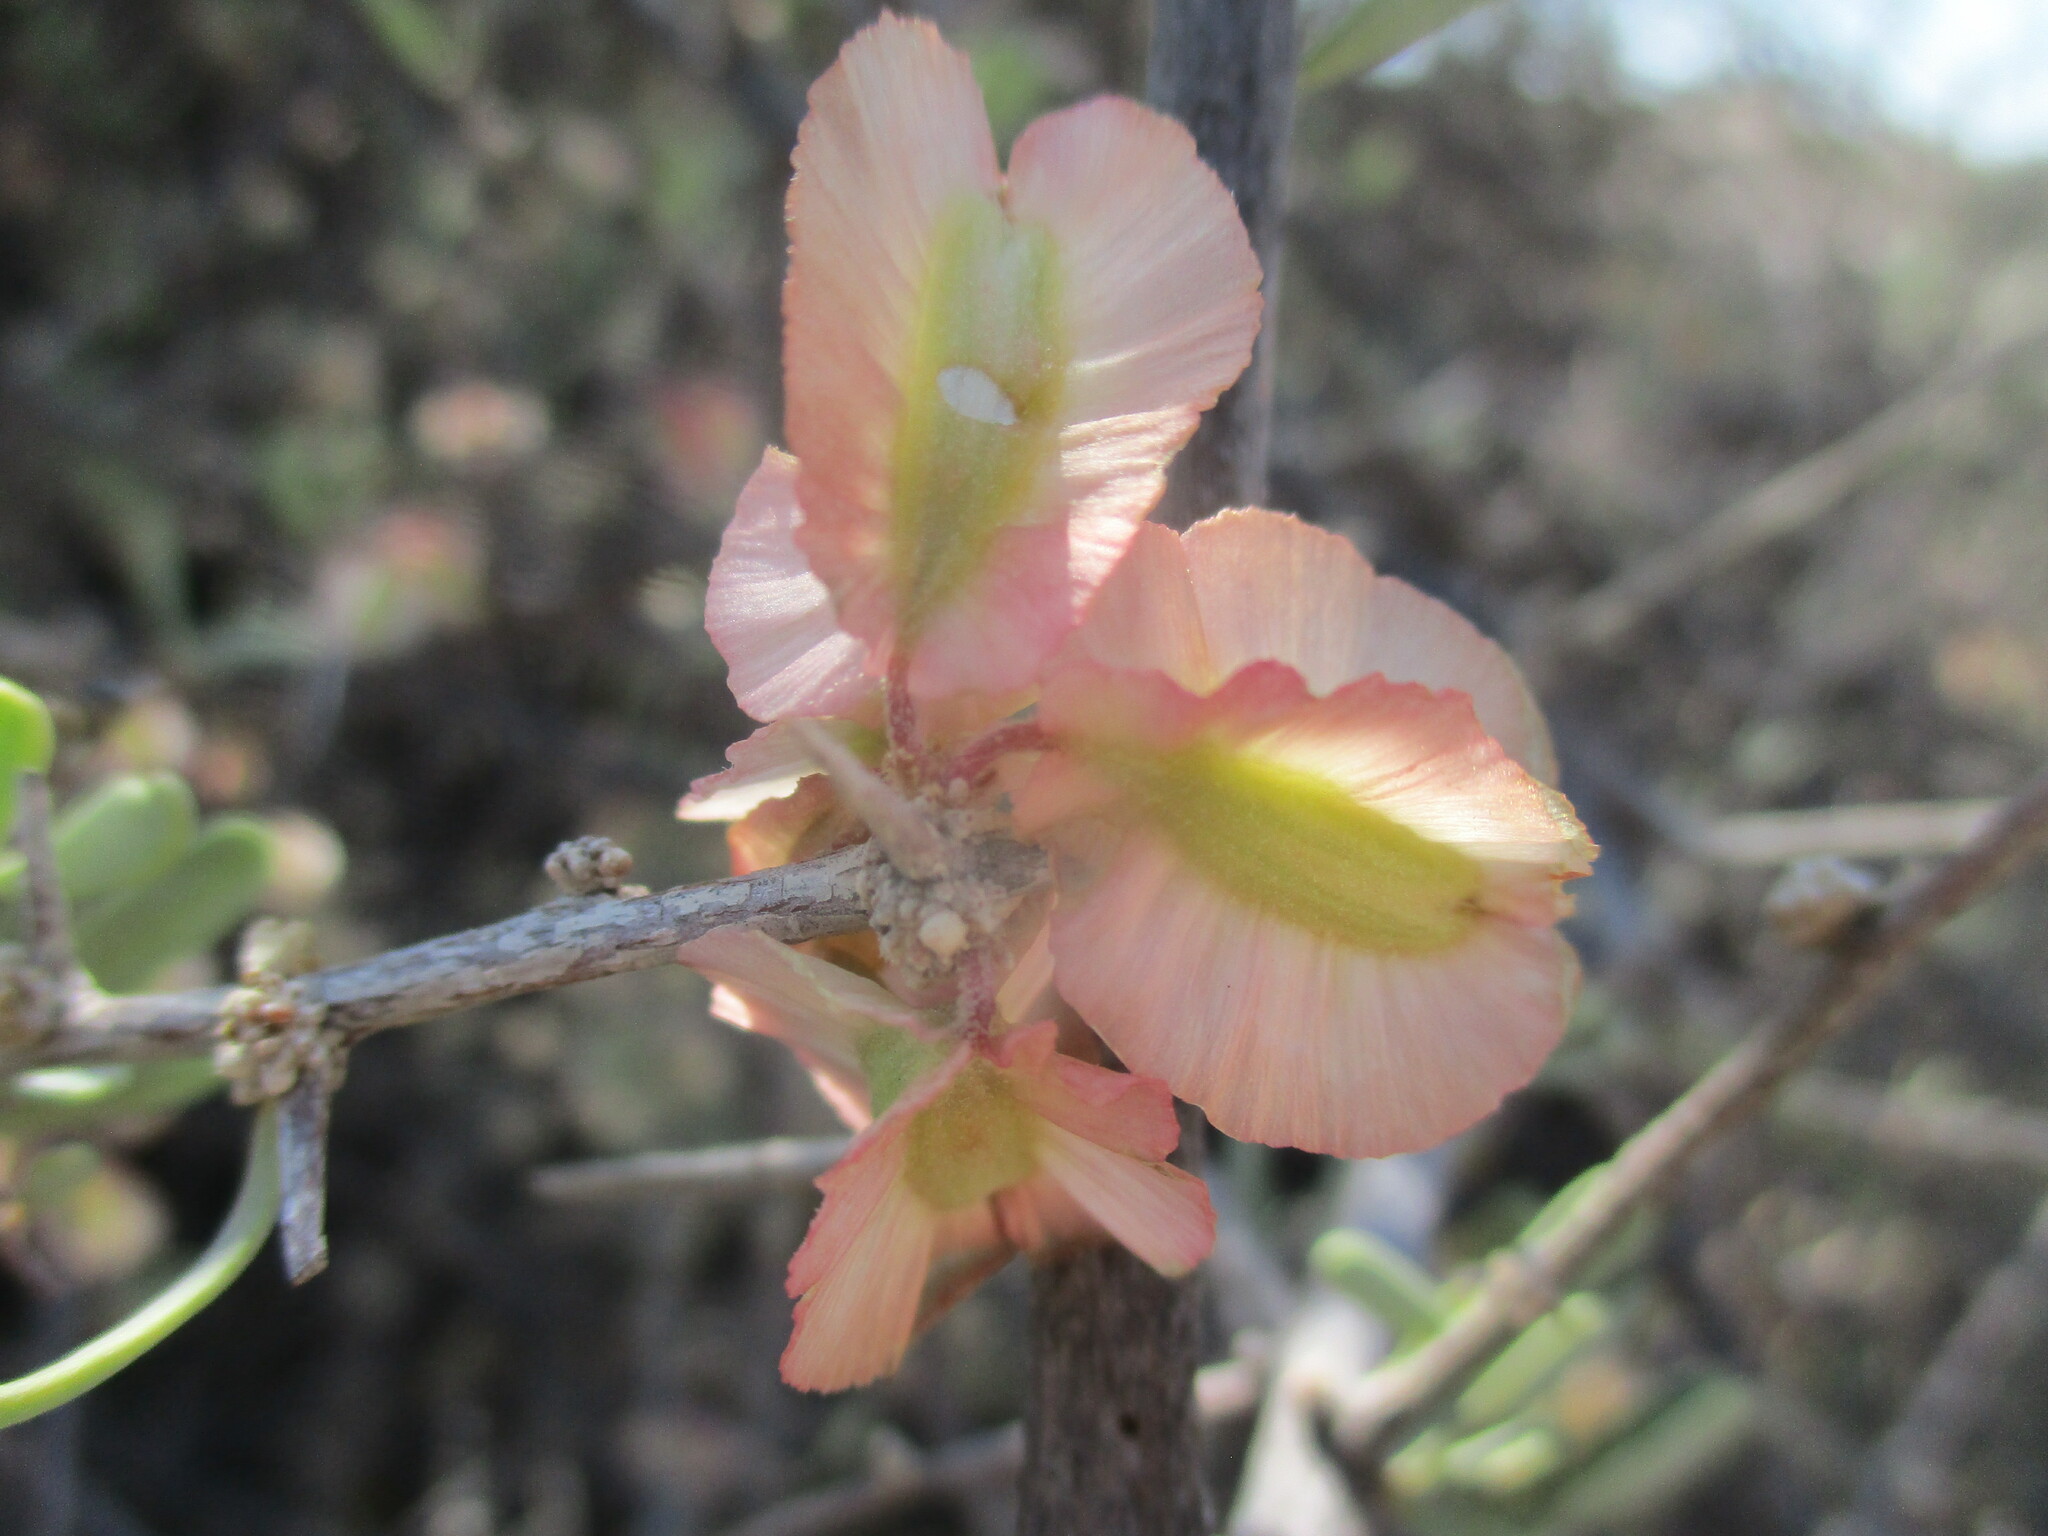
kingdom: Plantae
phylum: Tracheophyta
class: Magnoliopsida
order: Caryophyllales
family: Nyctaginaceae
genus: Phaeoptilum
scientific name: Phaeoptilum spinosum
